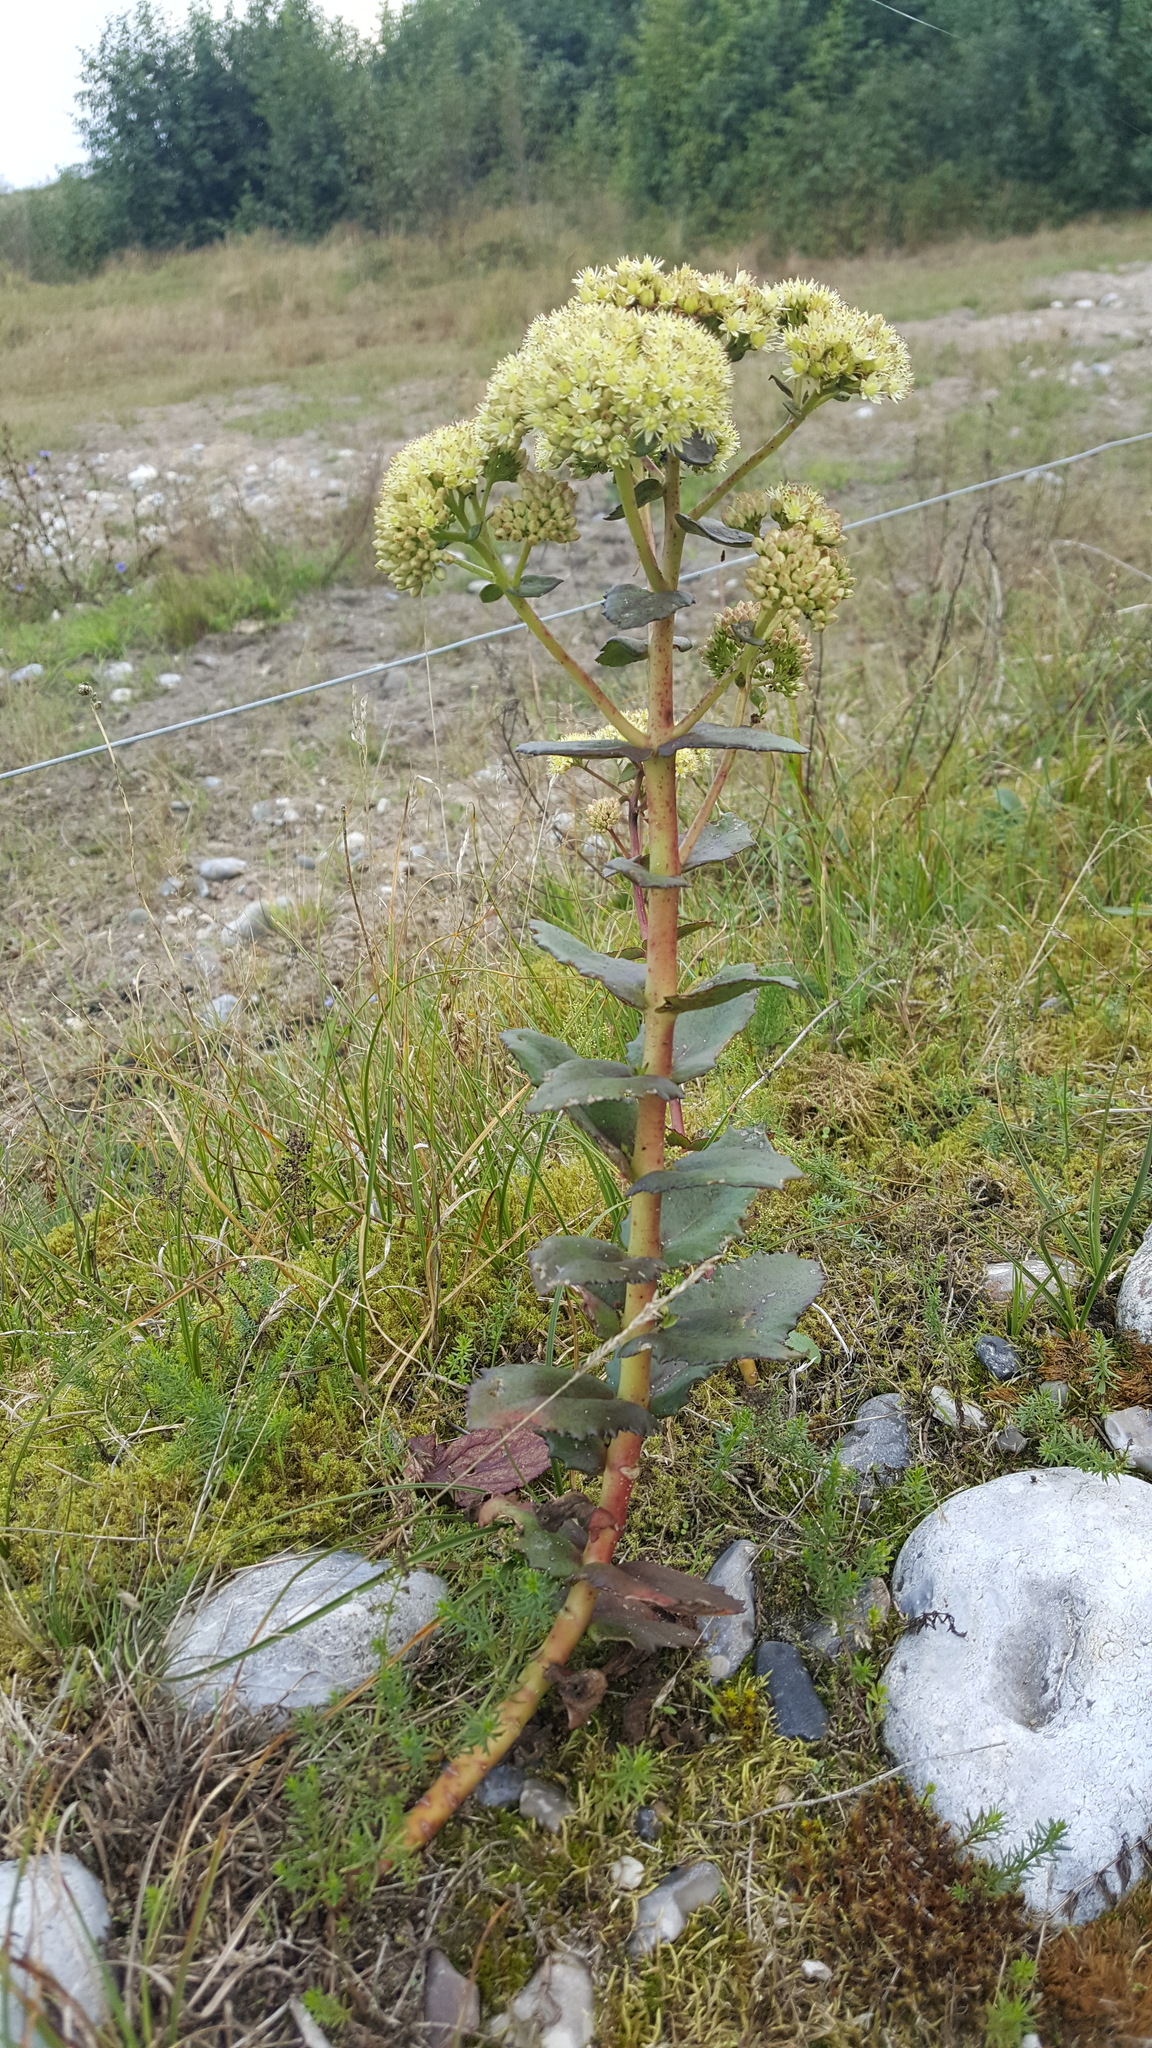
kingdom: Plantae
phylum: Tracheophyta
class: Magnoliopsida
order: Saxifragales
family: Crassulaceae
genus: Hylotelephium
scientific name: Hylotelephium maximum
